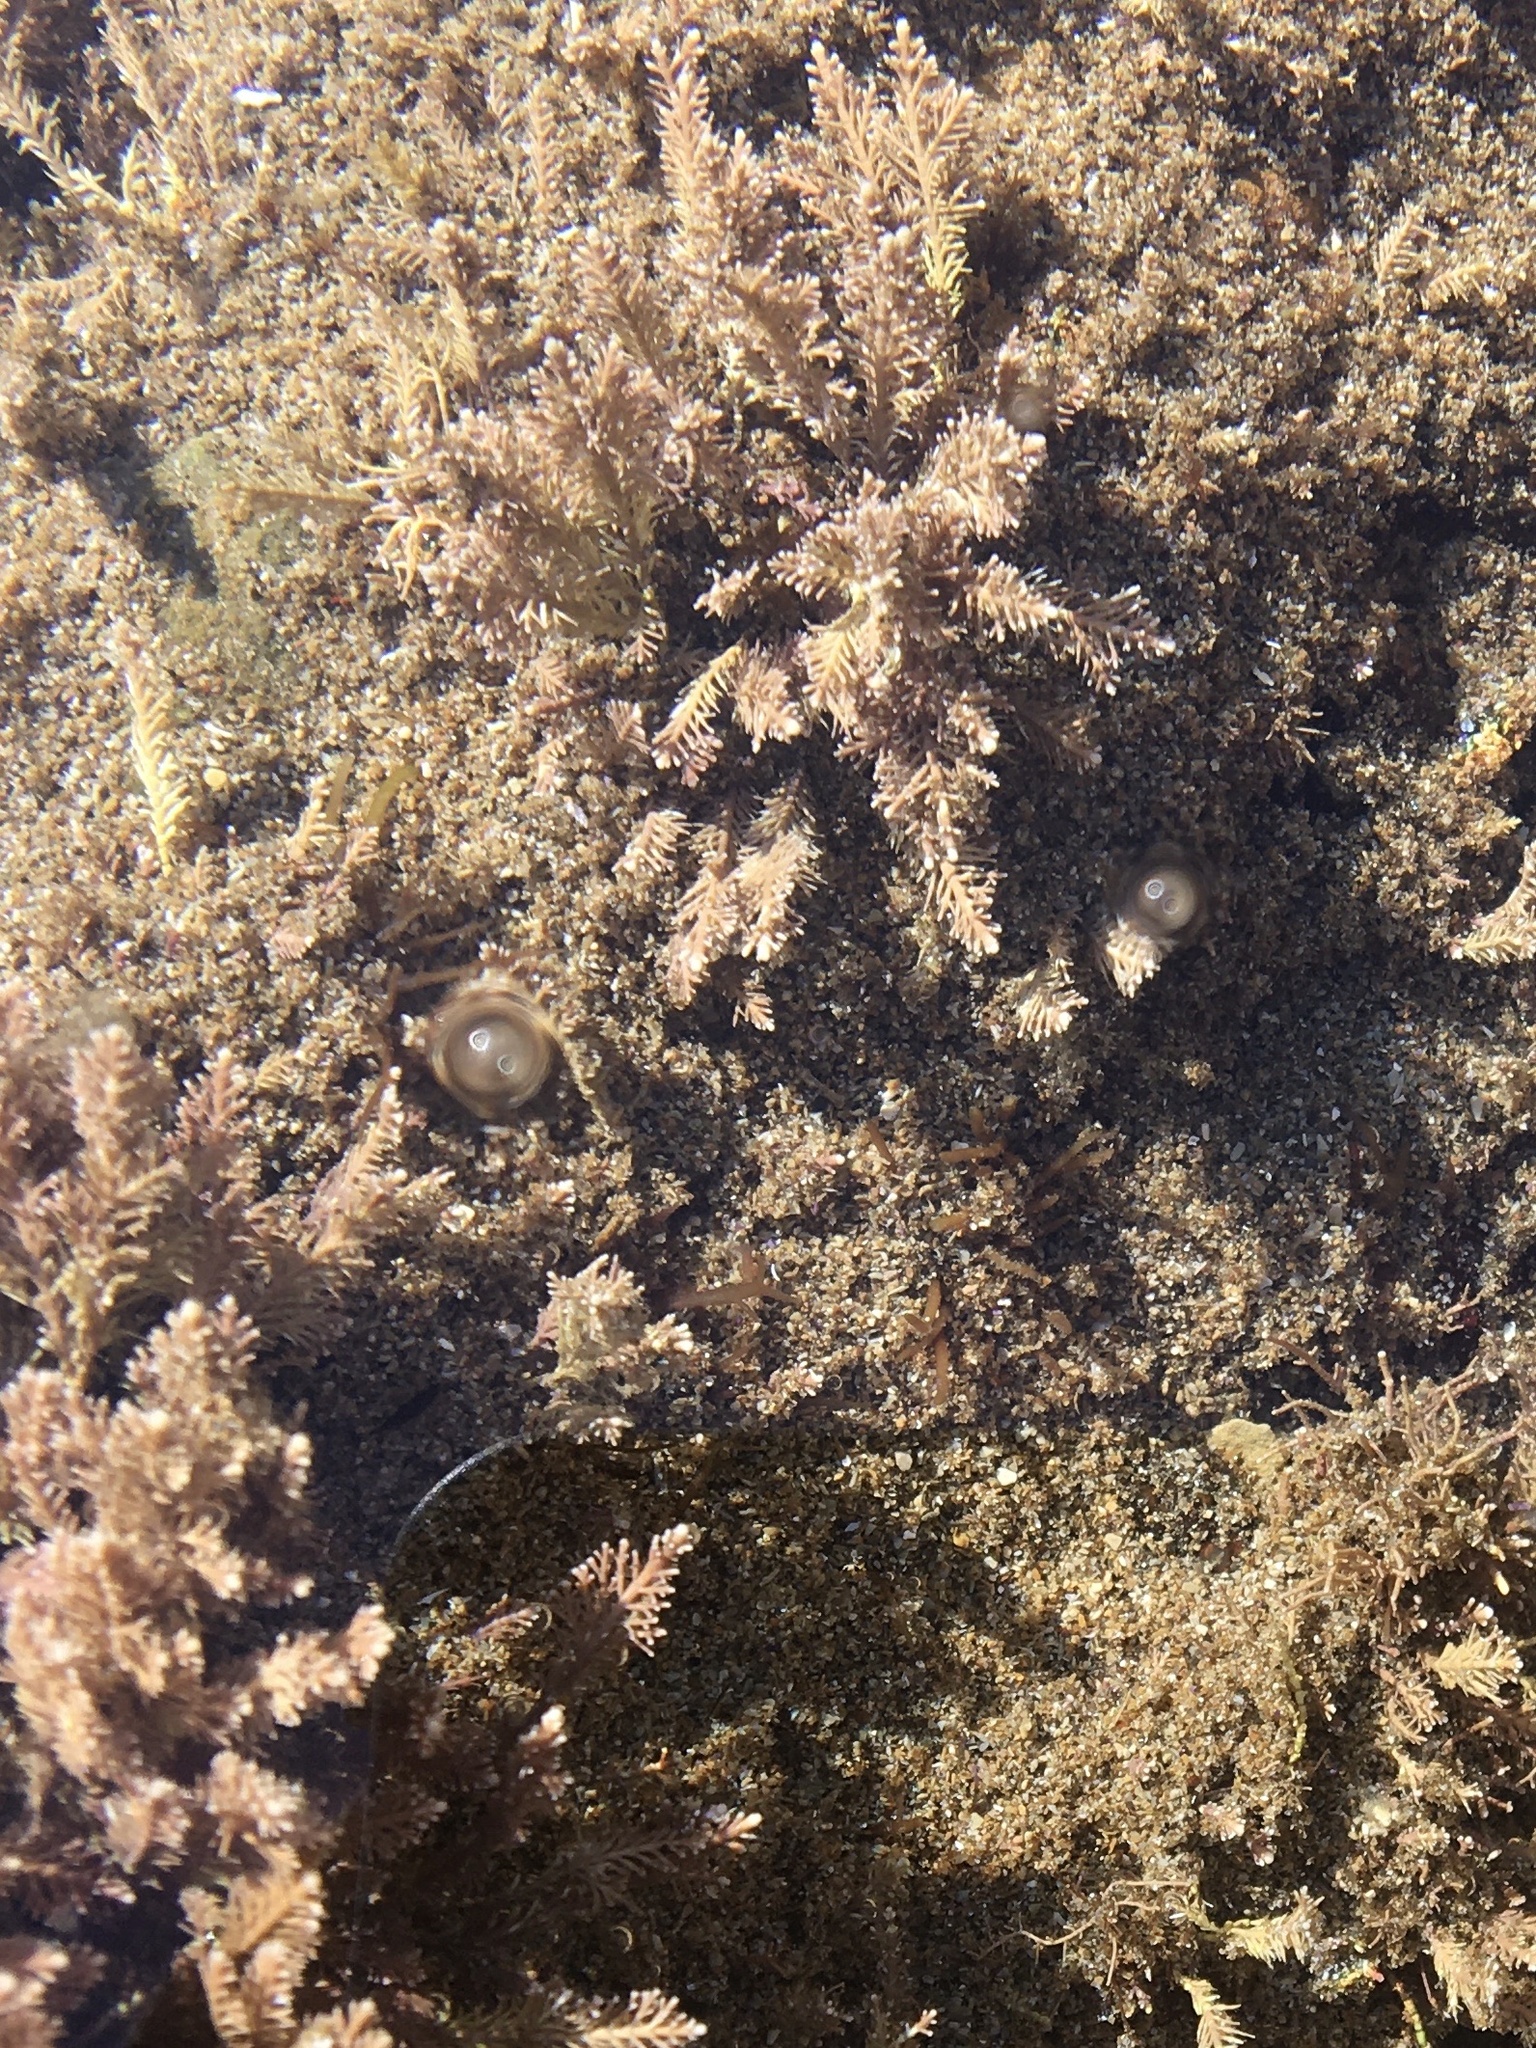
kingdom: Plantae
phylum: Rhodophyta
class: Florideophyceae
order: Corallinales
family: Corallinaceae
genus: Corallina
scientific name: Corallina officinalis
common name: Coral weed
